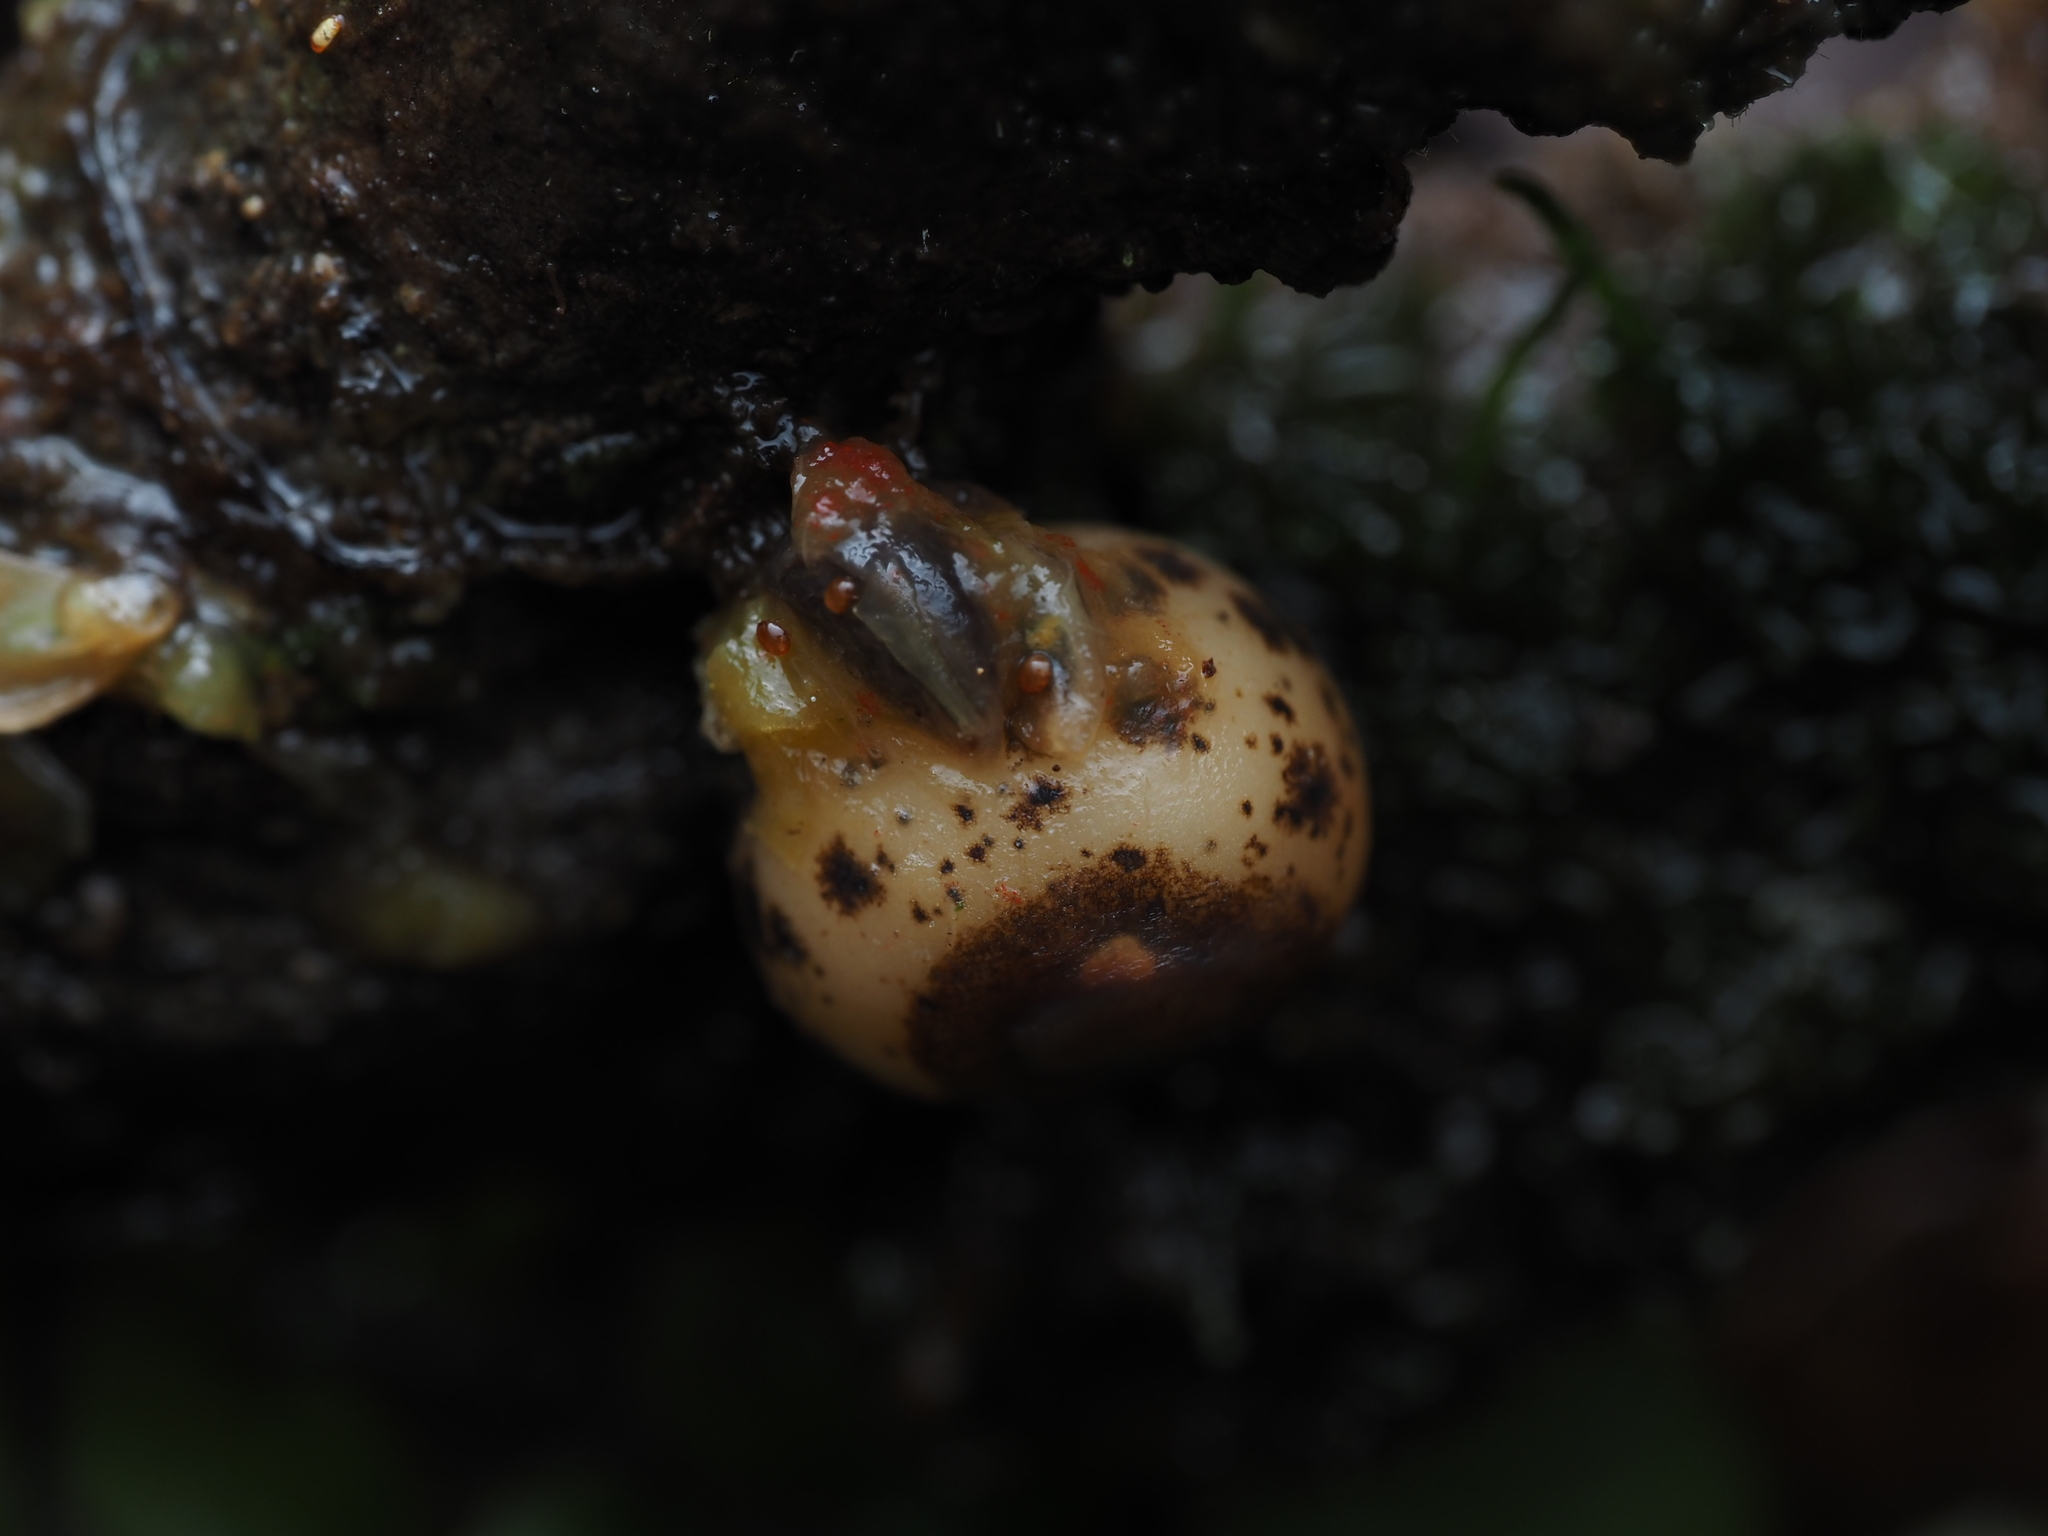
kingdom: Plantae
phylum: Tracheophyta
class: Liliopsida
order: Liliales
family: Ripogonaceae
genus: Ripogonum
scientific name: Ripogonum scandens
